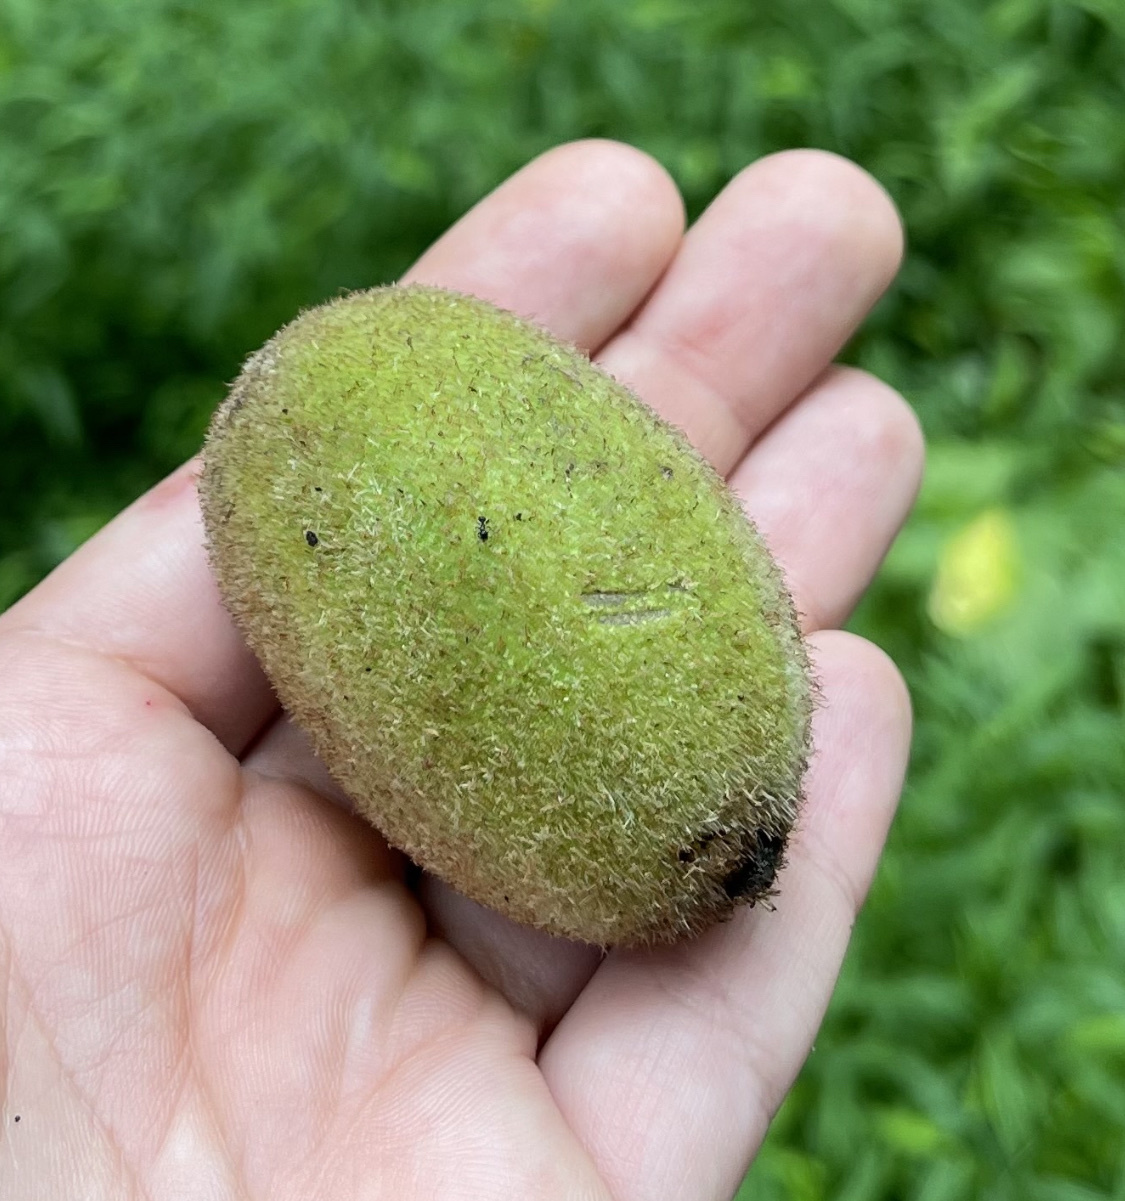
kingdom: Plantae
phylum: Tracheophyta
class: Magnoliopsida
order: Fagales
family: Juglandaceae
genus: Juglans
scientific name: Juglans cinerea
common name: Butternut
